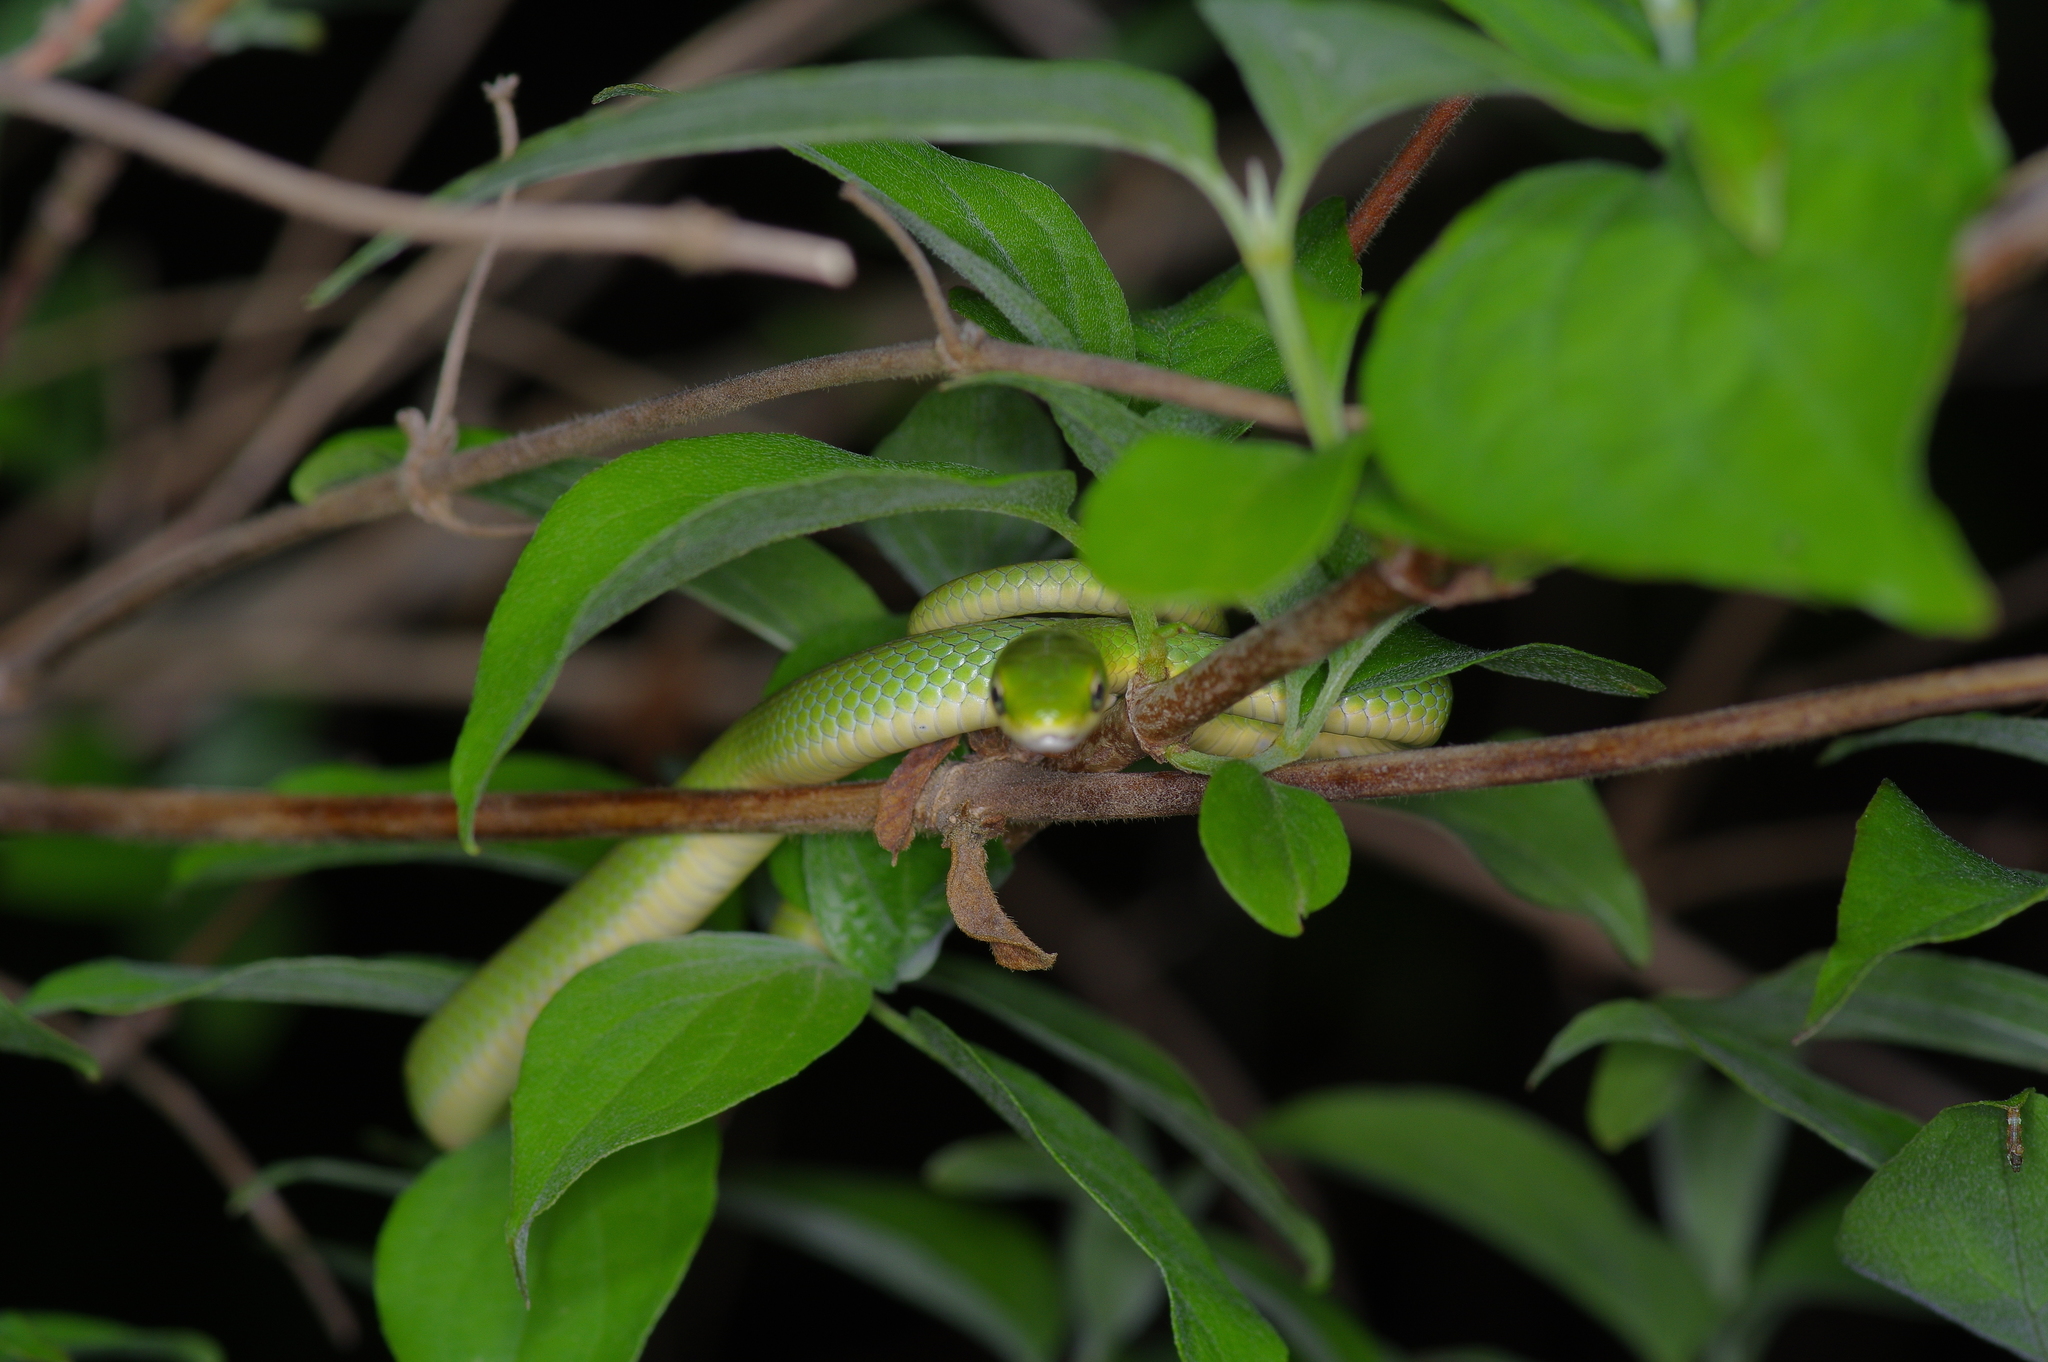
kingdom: Animalia
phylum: Chordata
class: Squamata
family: Colubridae
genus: Opheodrys
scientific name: Opheodrys aestivus
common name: Rough greensnake
